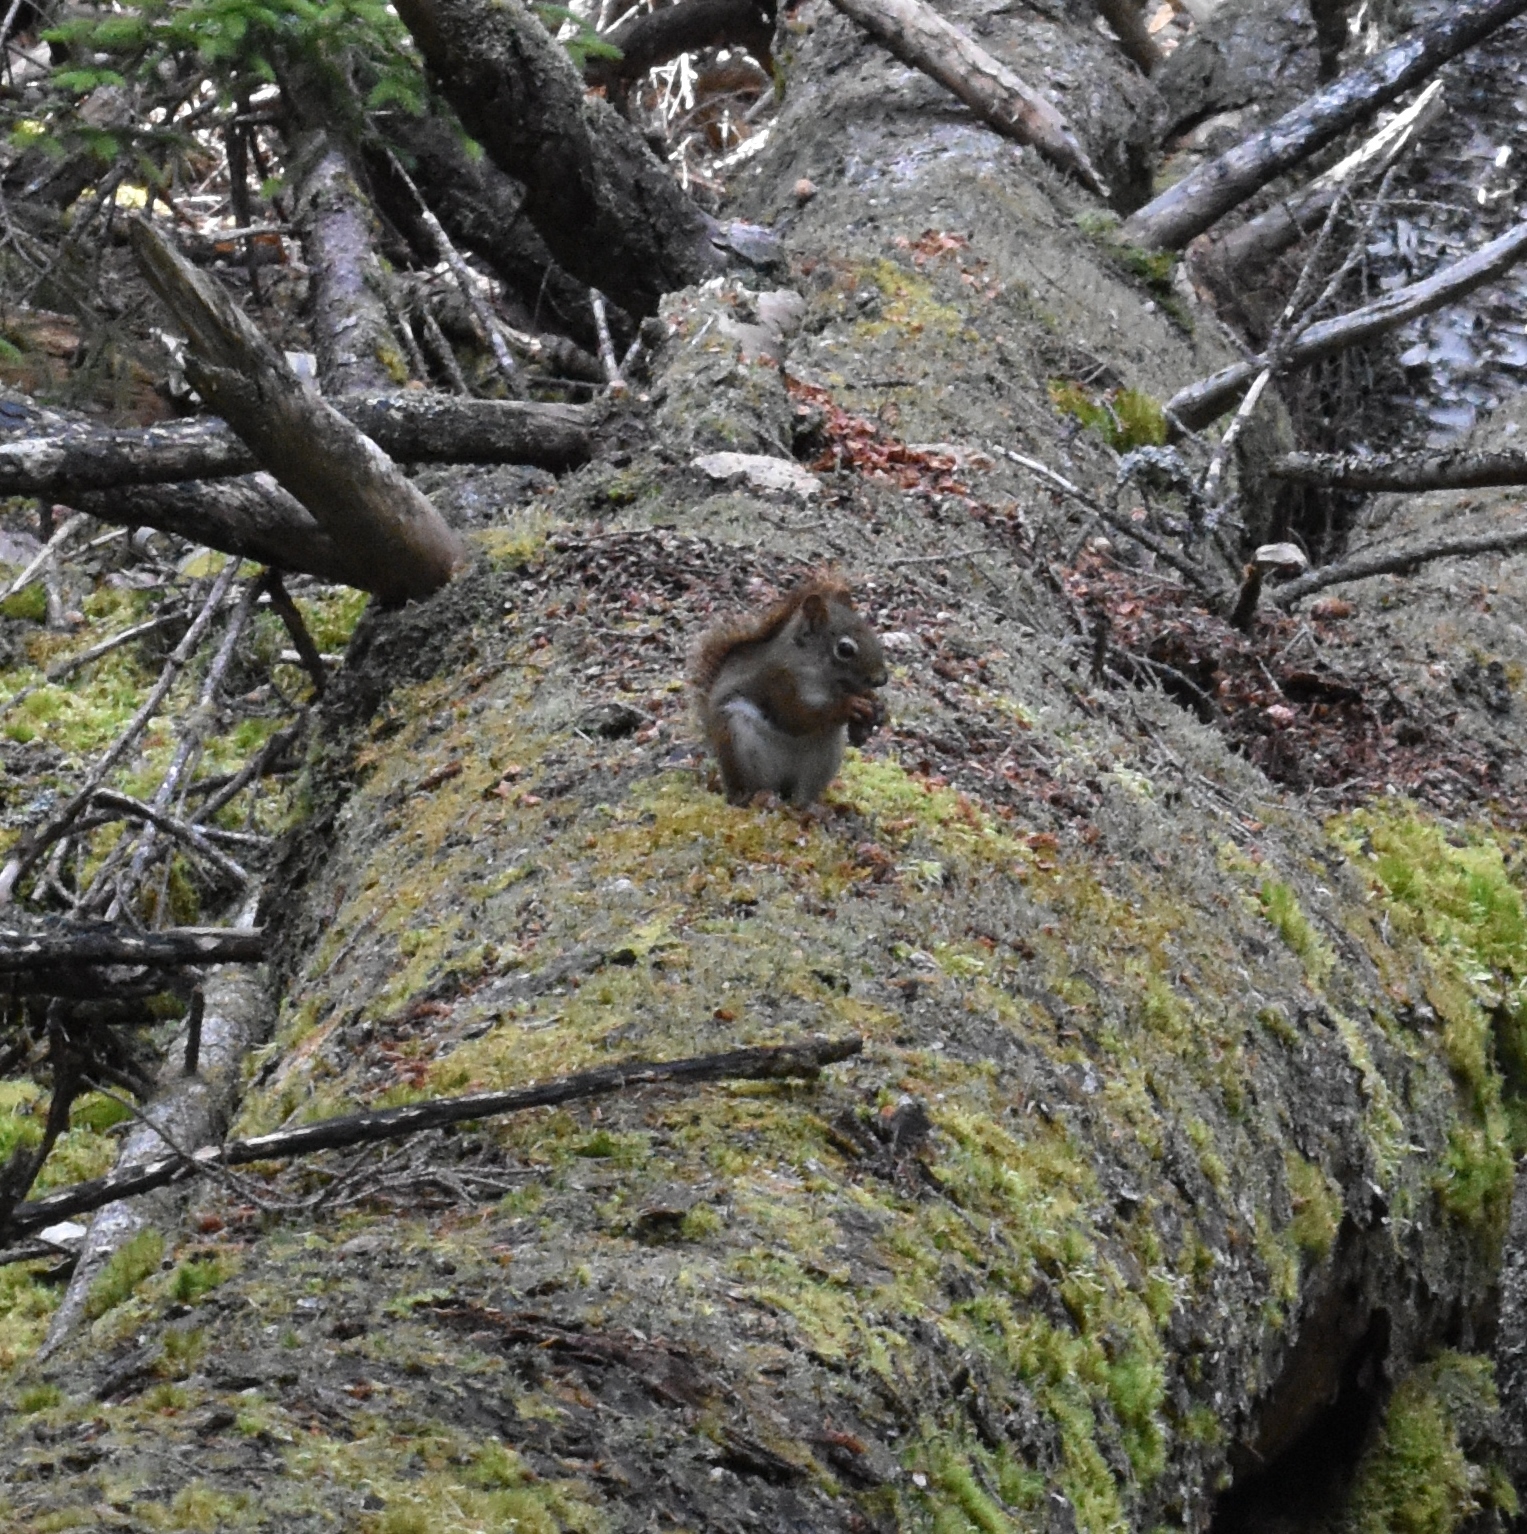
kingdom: Animalia
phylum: Chordata
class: Mammalia
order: Rodentia
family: Sciuridae
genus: Tamiasciurus
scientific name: Tamiasciurus hudsonicus
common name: Red squirrel
